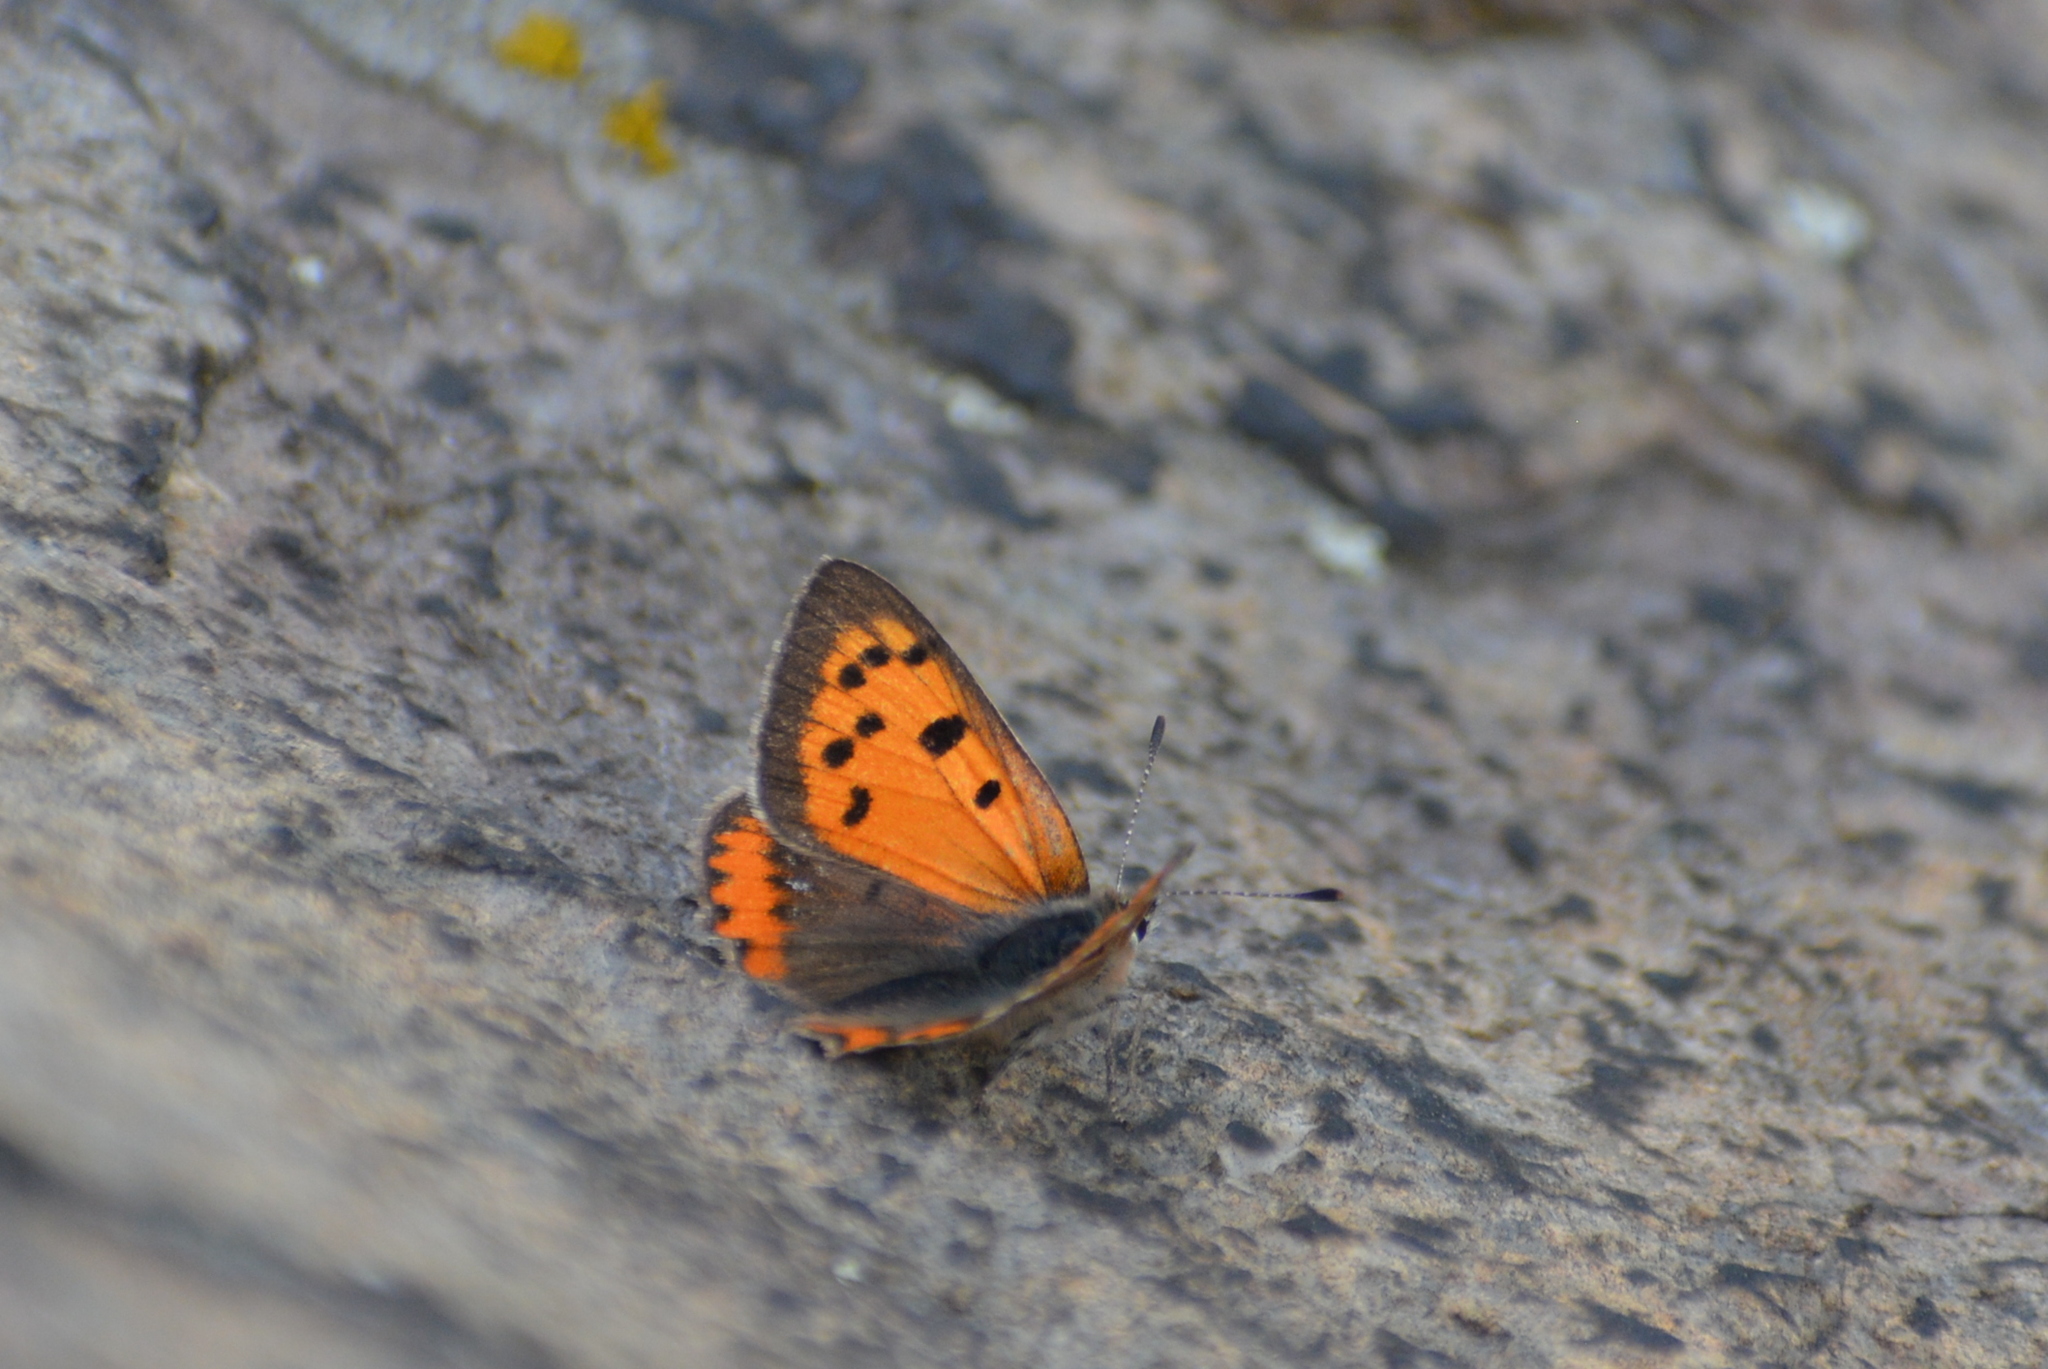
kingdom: Animalia
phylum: Arthropoda
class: Insecta
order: Lepidoptera
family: Lycaenidae
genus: Lycaena
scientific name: Lycaena phlaeas
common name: Small copper
